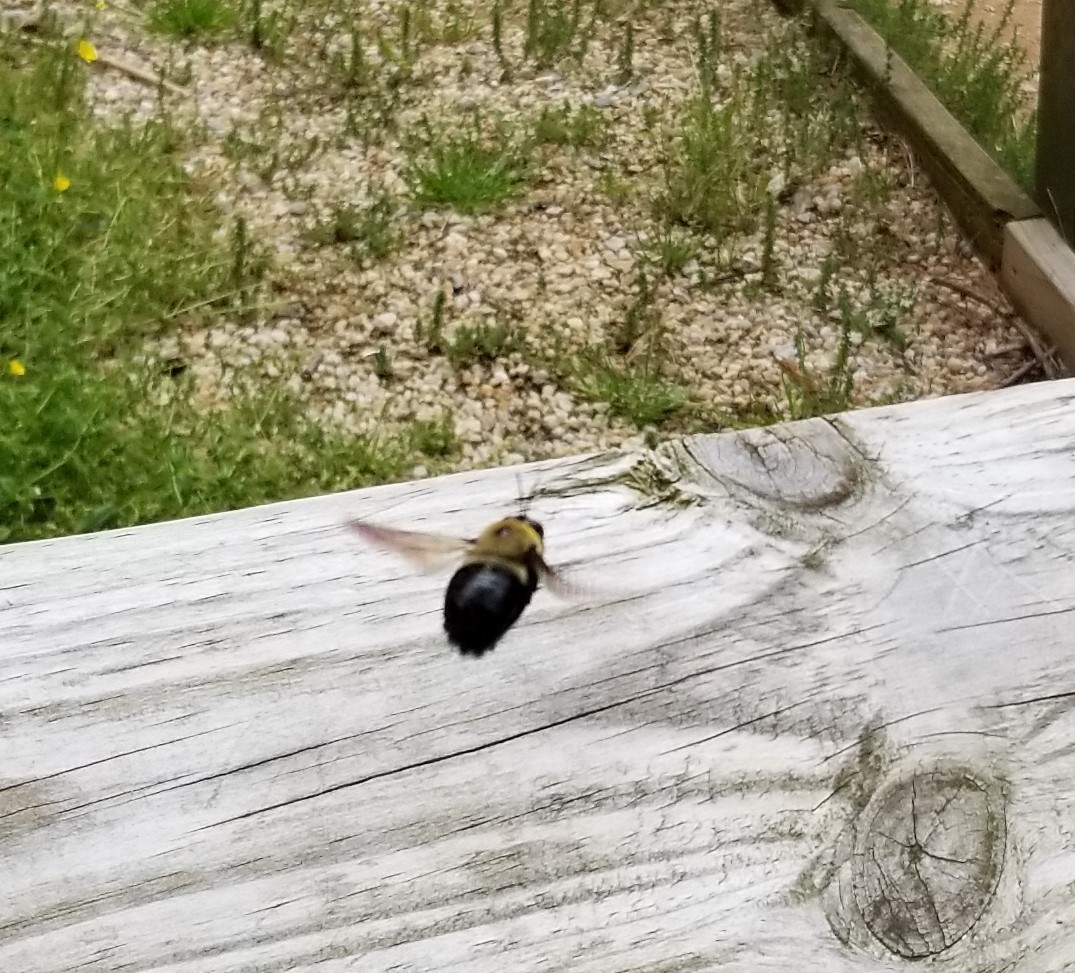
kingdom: Animalia
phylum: Arthropoda
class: Insecta
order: Hymenoptera
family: Apidae
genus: Xylocopa
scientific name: Xylocopa virginica
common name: Carpenter bee
